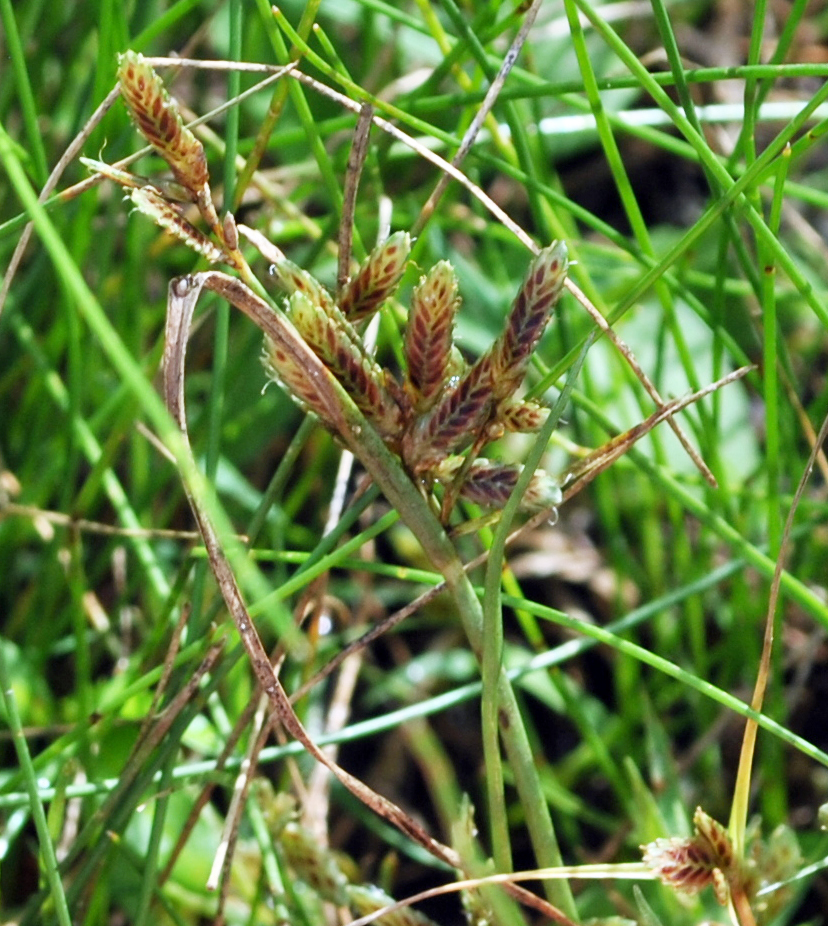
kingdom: Plantae
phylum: Tracheophyta
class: Liliopsida
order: Poales
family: Cyperaceae
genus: Cyperus
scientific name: Cyperus bipartitus
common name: Brook flatsedge
